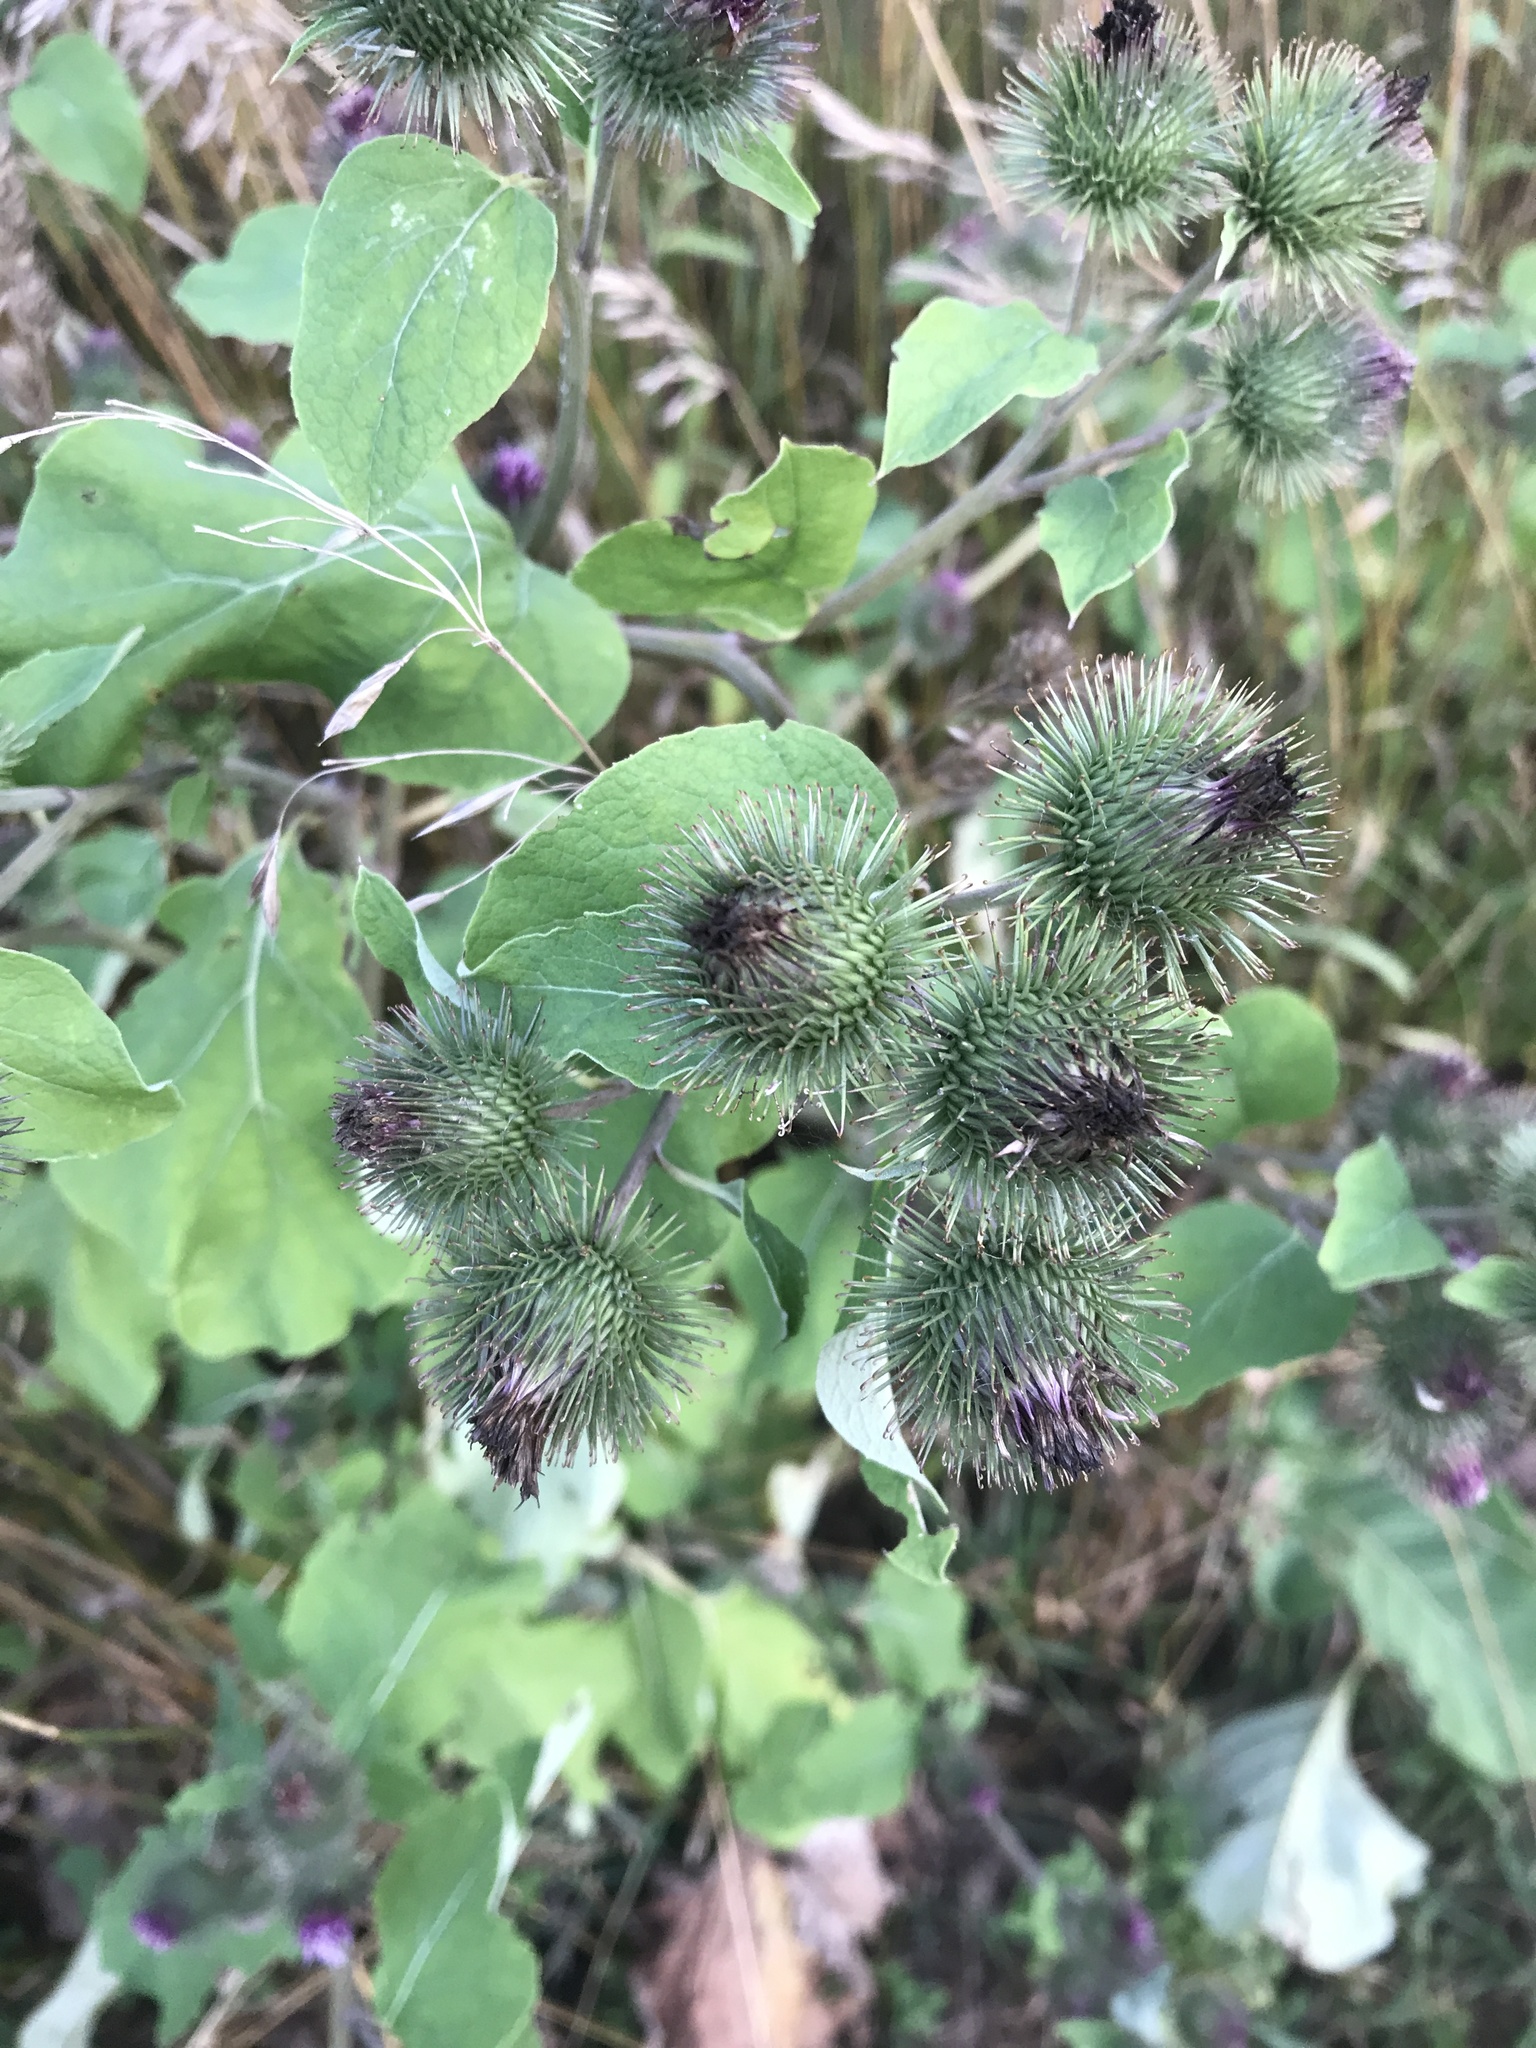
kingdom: Plantae
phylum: Tracheophyta
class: Magnoliopsida
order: Asterales
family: Asteraceae
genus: Arctium
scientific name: Arctium minus
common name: Lesser burdock
